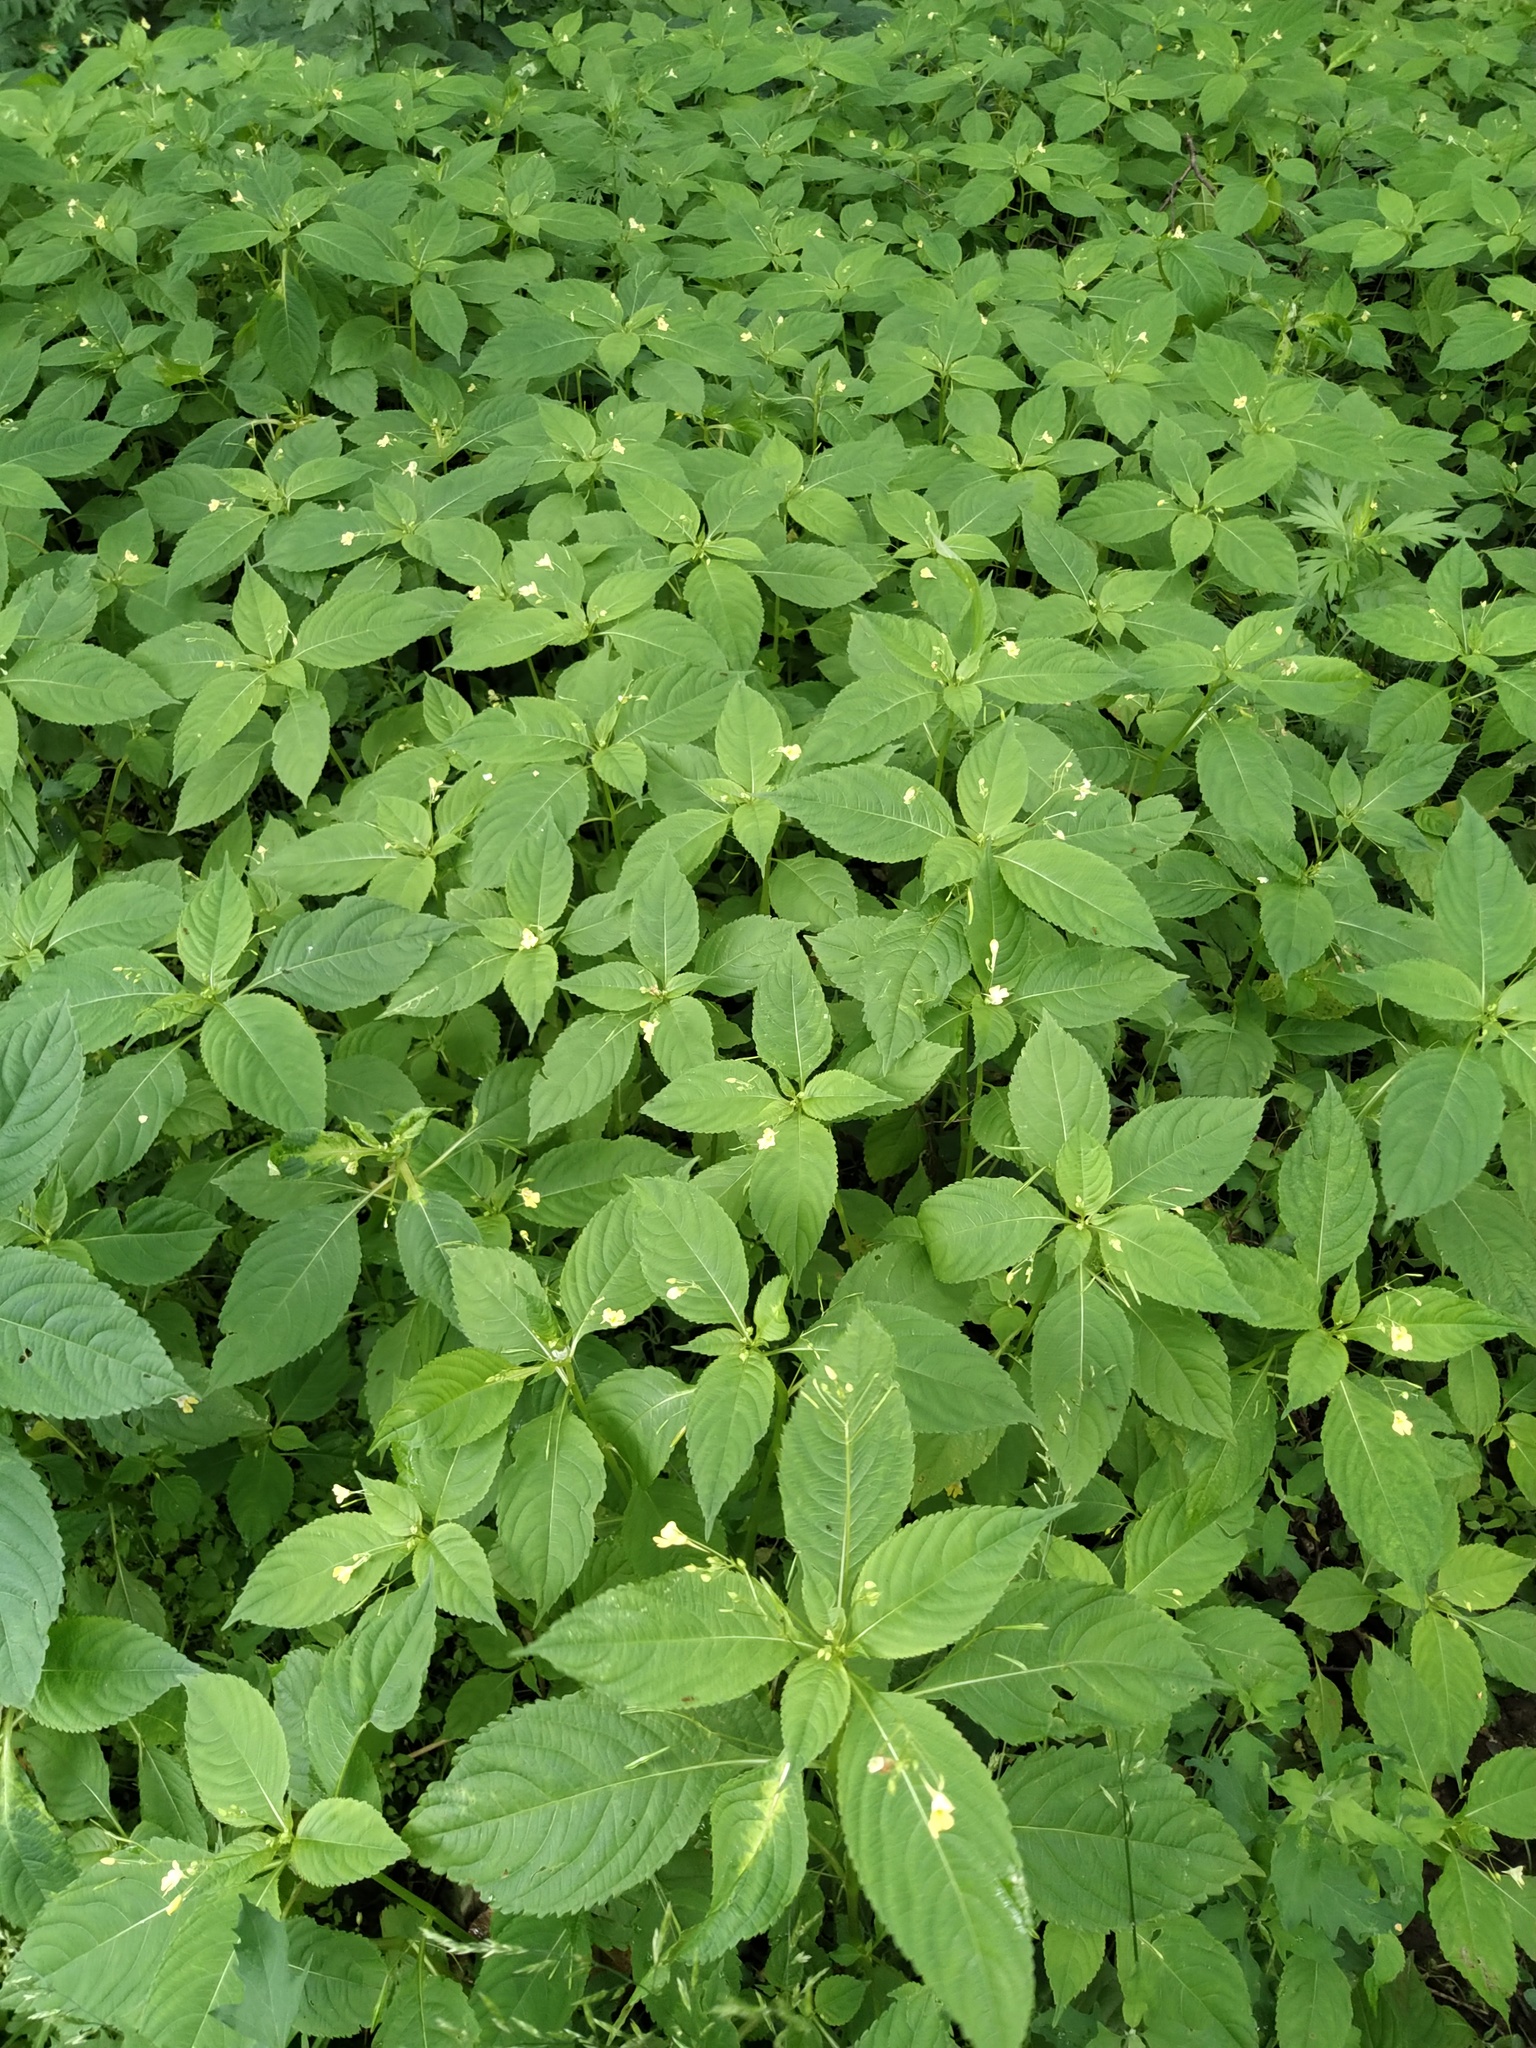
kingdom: Plantae
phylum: Tracheophyta
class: Magnoliopsida
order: Ericales
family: Balsaminaceae
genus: Impatiens
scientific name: Impatiens parviflora
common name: Small balsam
